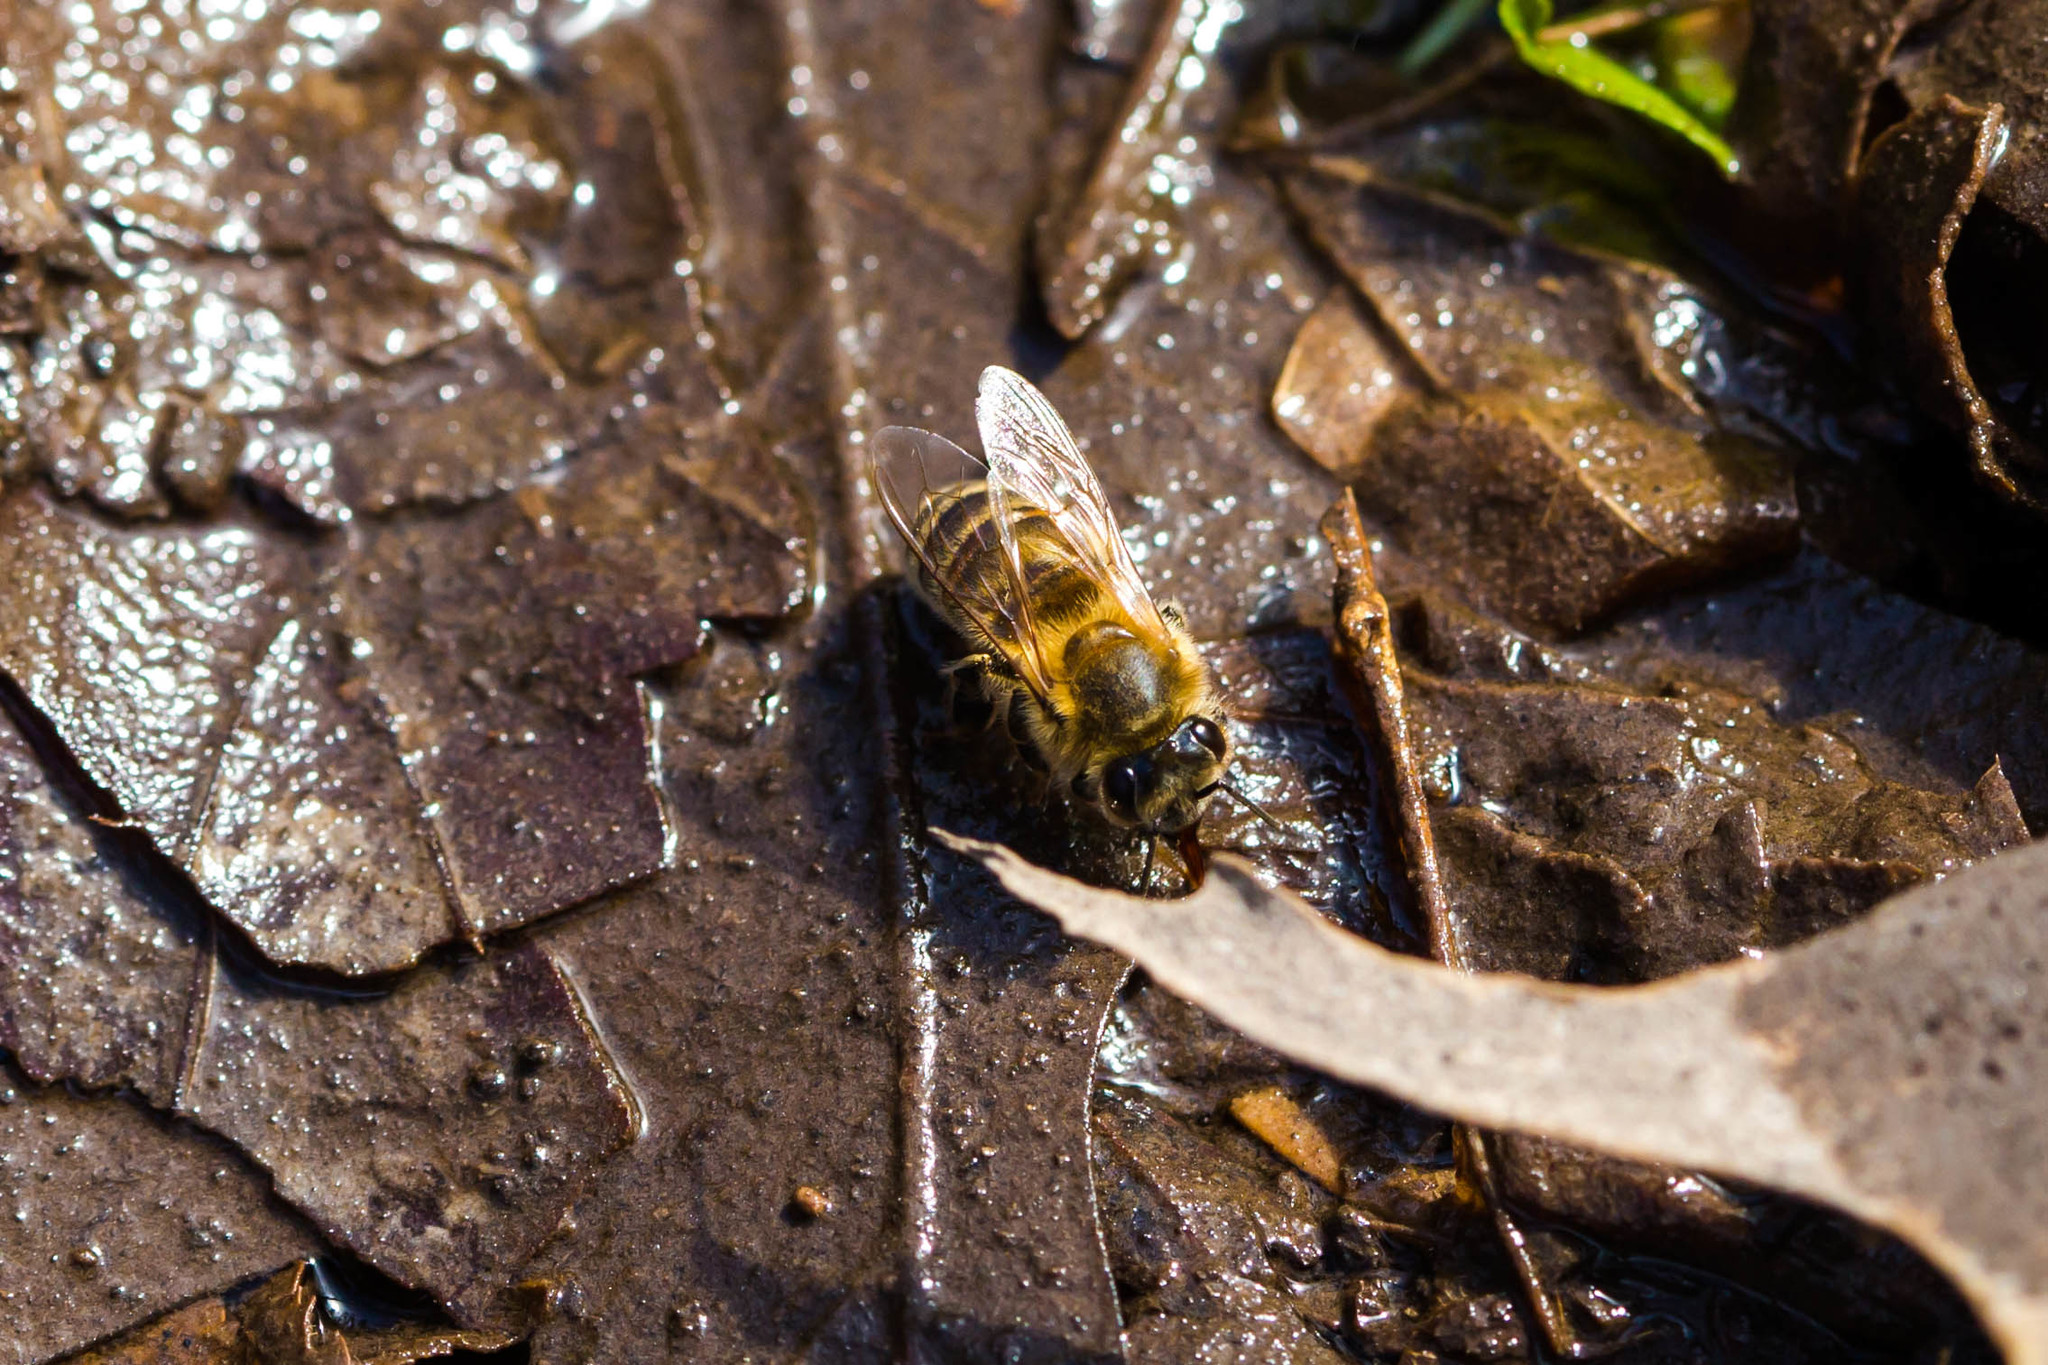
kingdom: Animalia
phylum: Arthropoda
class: Insecta
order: Hymenoptera
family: Apidae
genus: Apis
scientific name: Apis mellifera
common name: Honey bee
